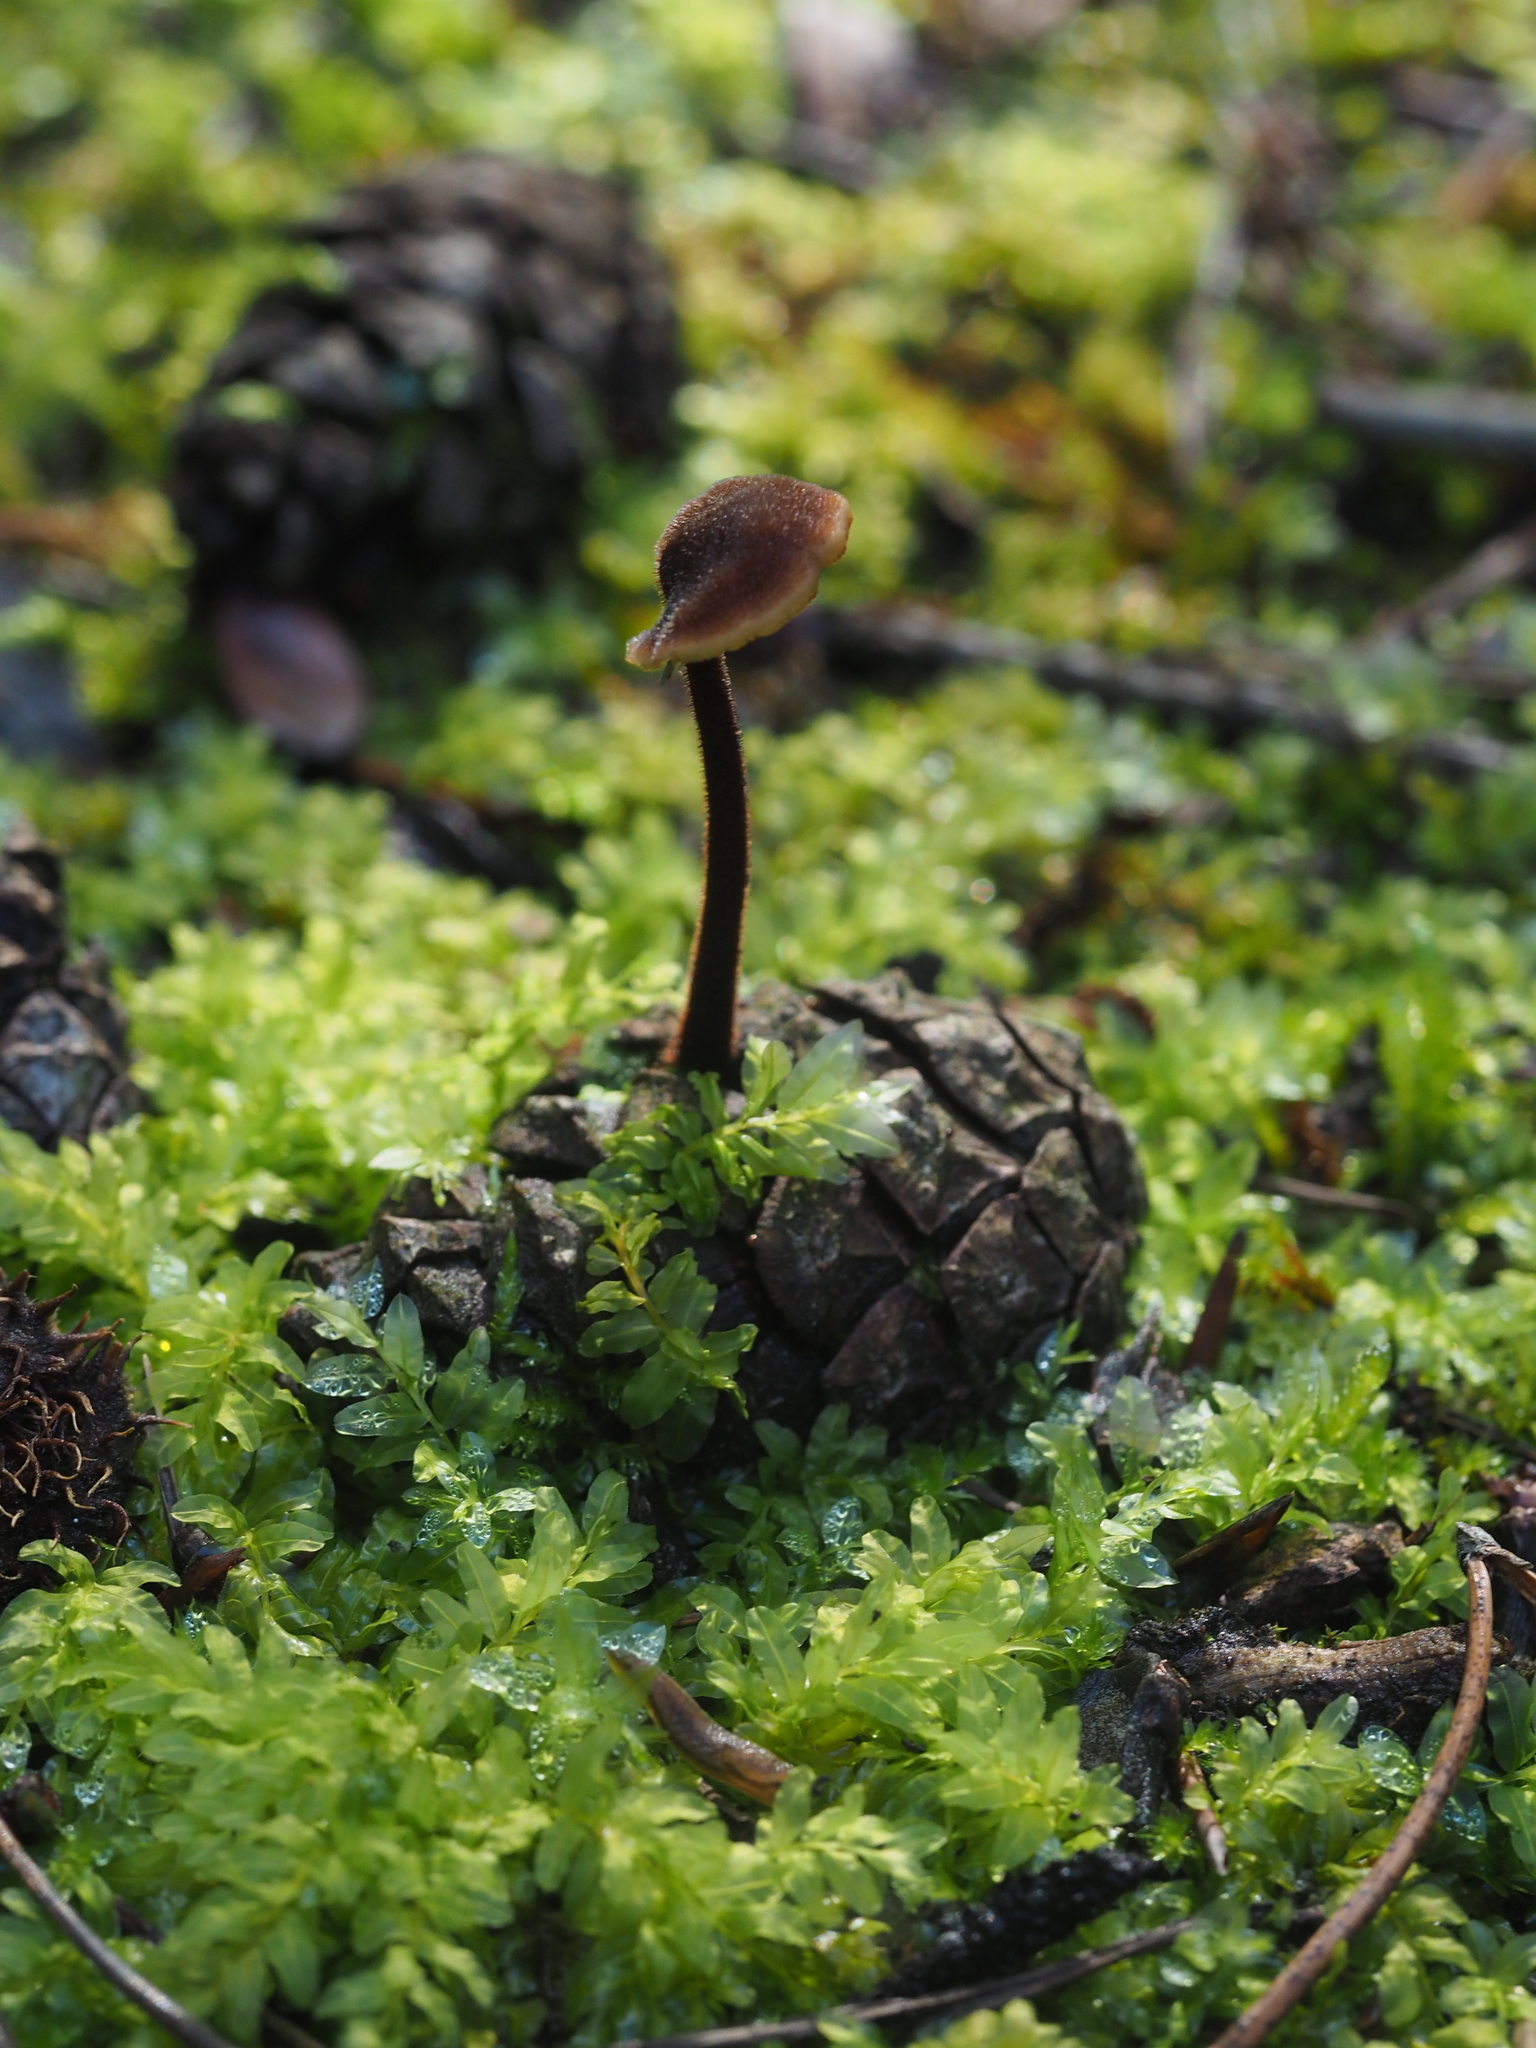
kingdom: Fungi
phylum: Basidiomycota
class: Agaricomycetes
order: Russulales
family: Auriscalpiaceae
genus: Auriscalpium
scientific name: Auriscalpium vulgare
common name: Earpick fungus
